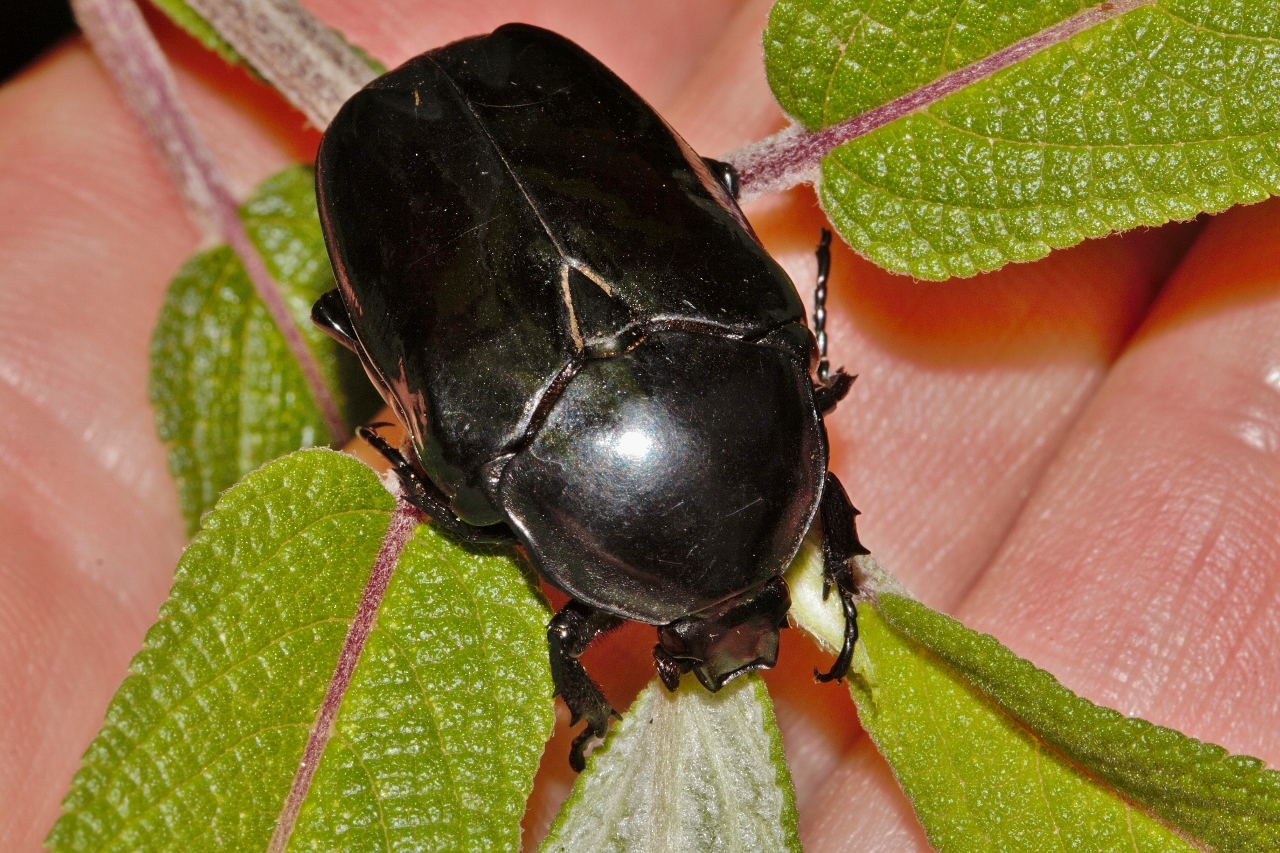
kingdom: Animalia
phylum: Arthropoda
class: Insecta
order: Coleoptera
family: Scarabaeidae
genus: Diplognatha
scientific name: Diplognatha gagates
